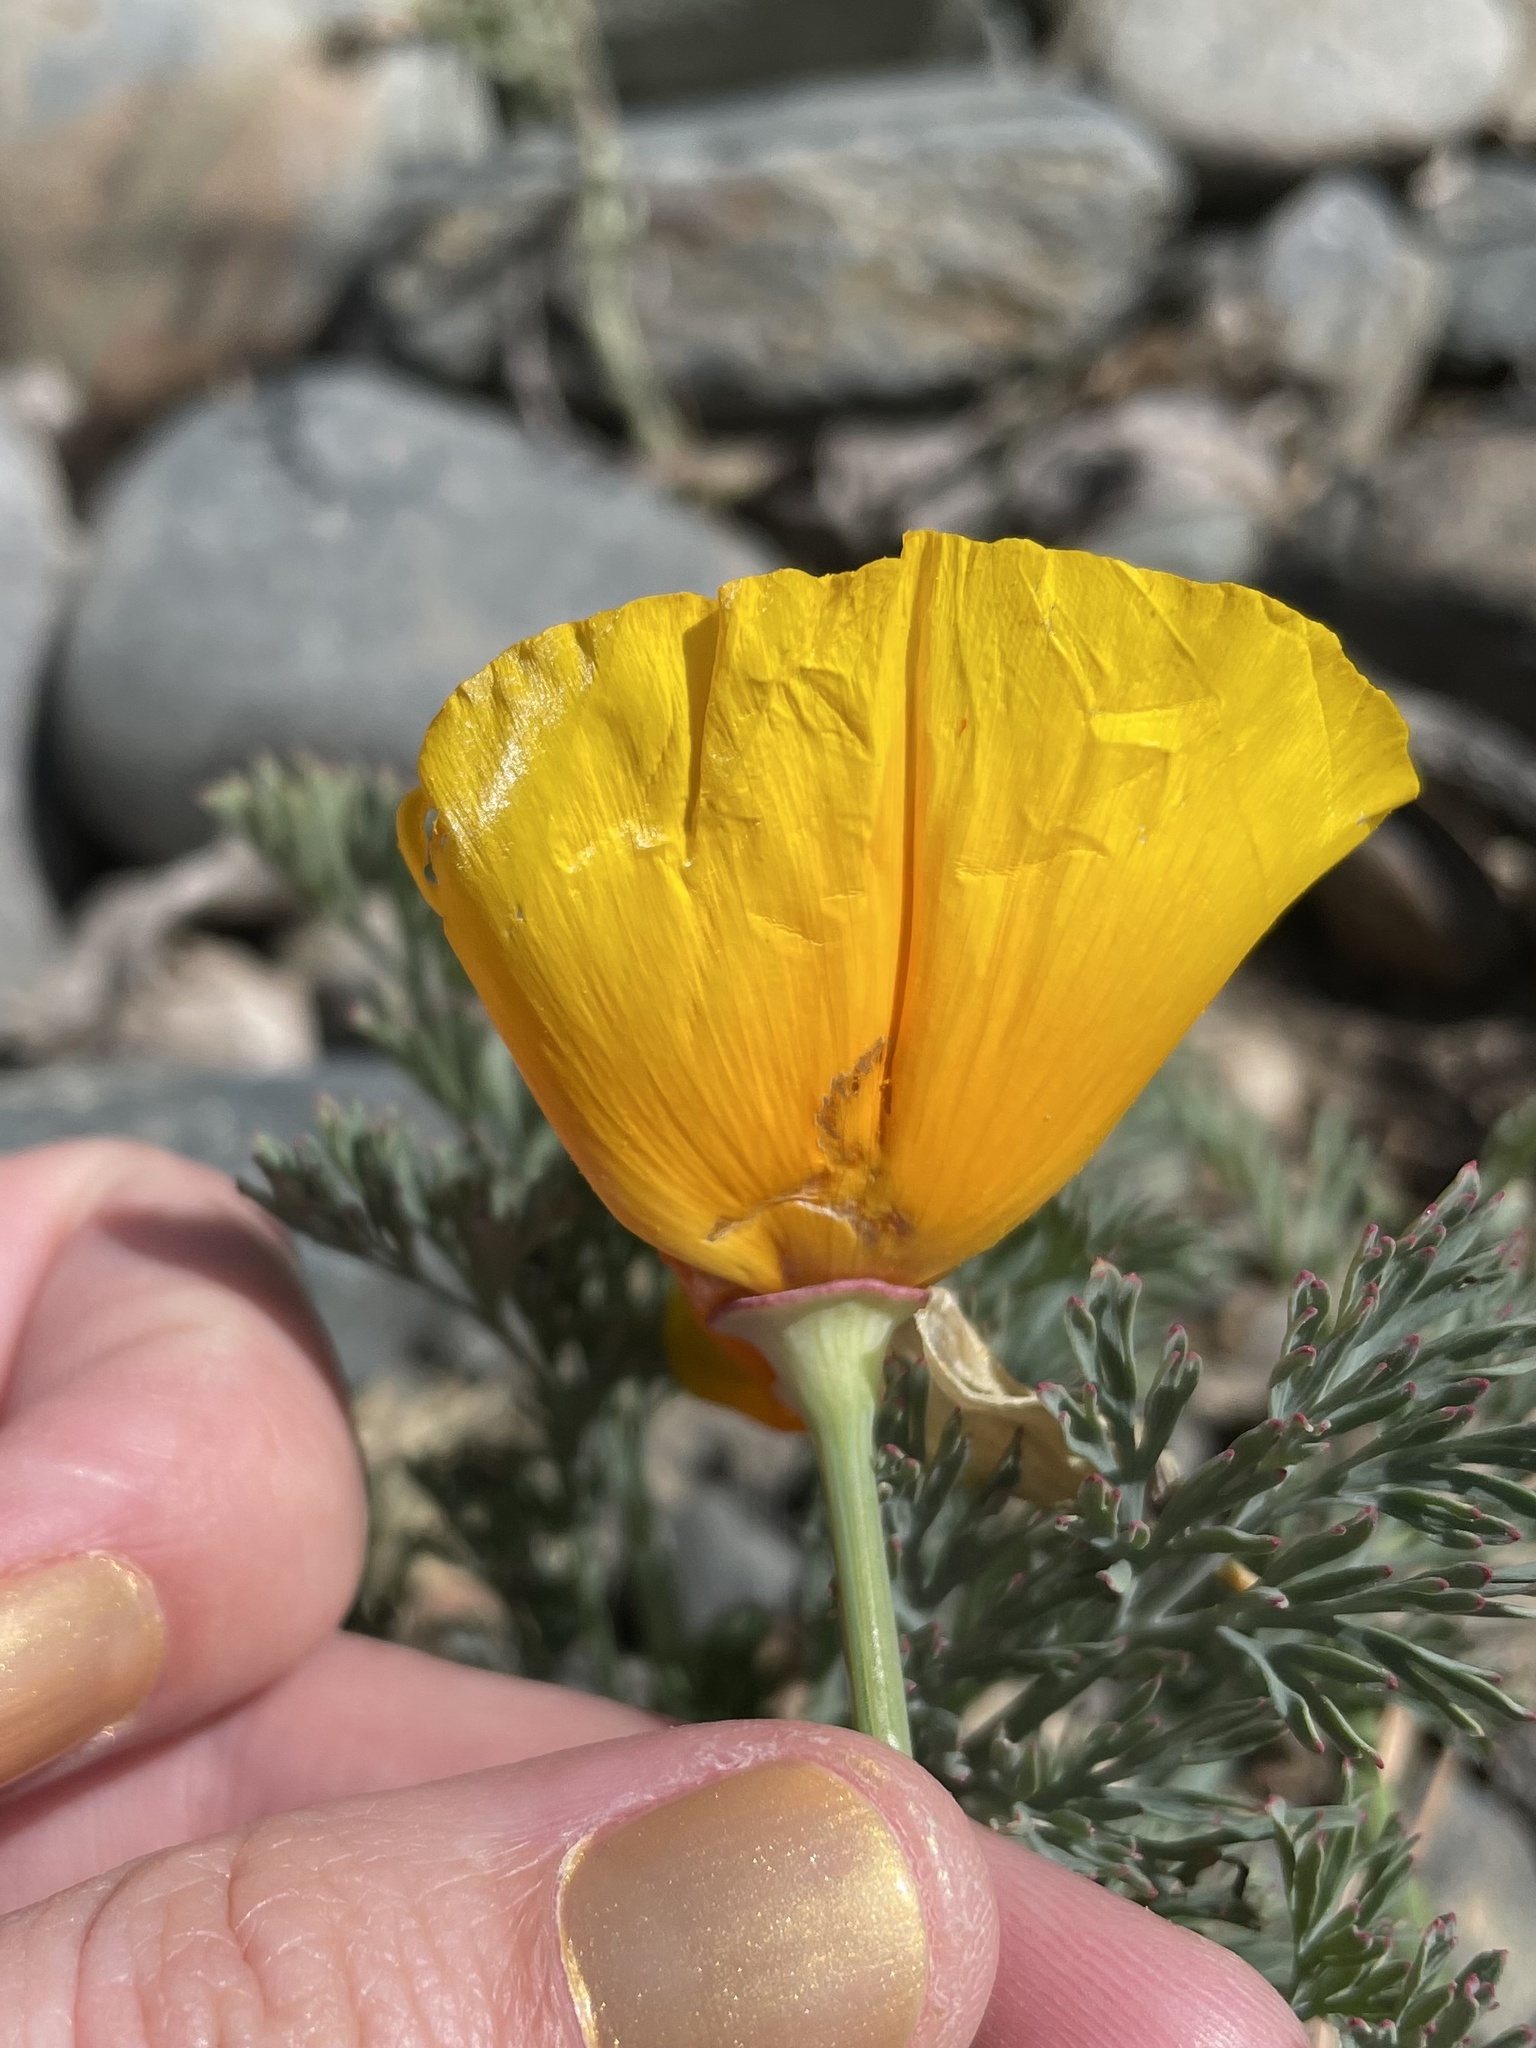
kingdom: Plantae
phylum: Tracheophyta
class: Magnoliopsida
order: Ranunculales
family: Papaveraceae
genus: Eschscholzia
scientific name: Eschscholzia californica
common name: California poppy
